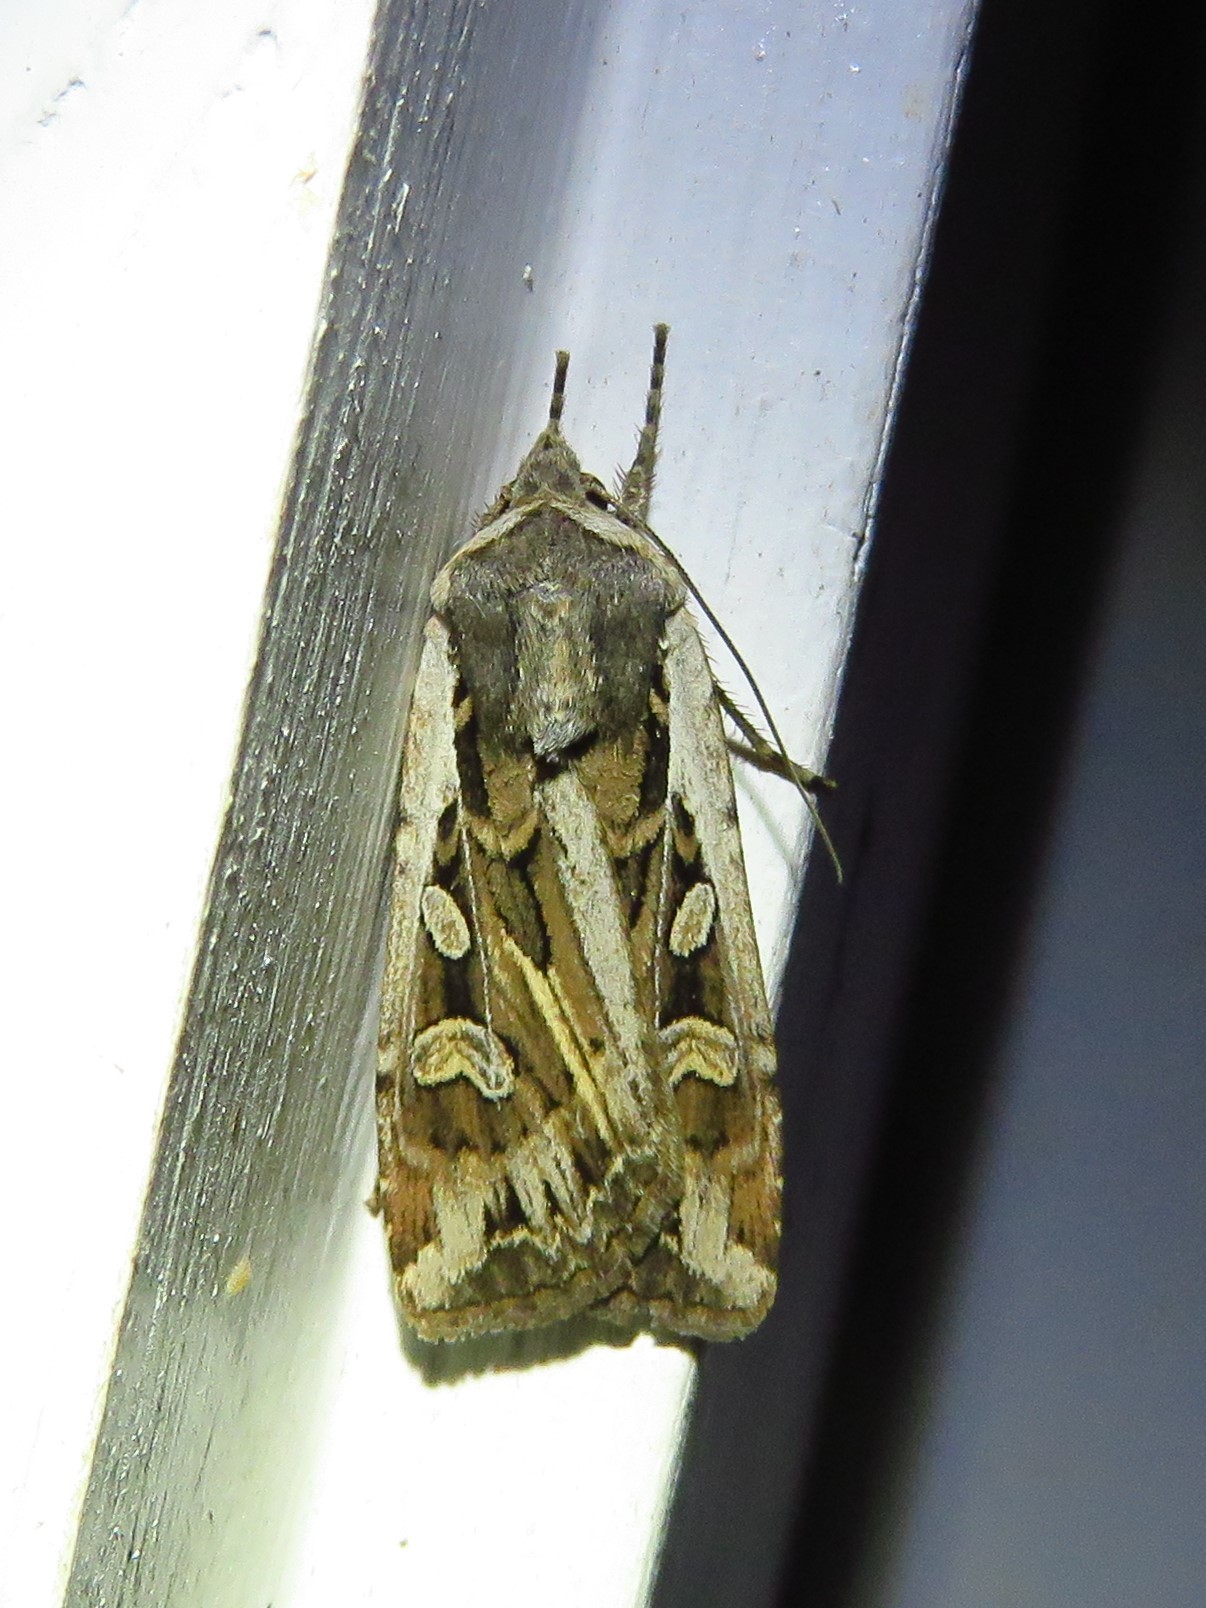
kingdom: Animalia
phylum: Arthropoda
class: Insecta
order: Lepidoptera
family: Noctuidae
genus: Euxoa
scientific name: Euxoa auxiliaris
